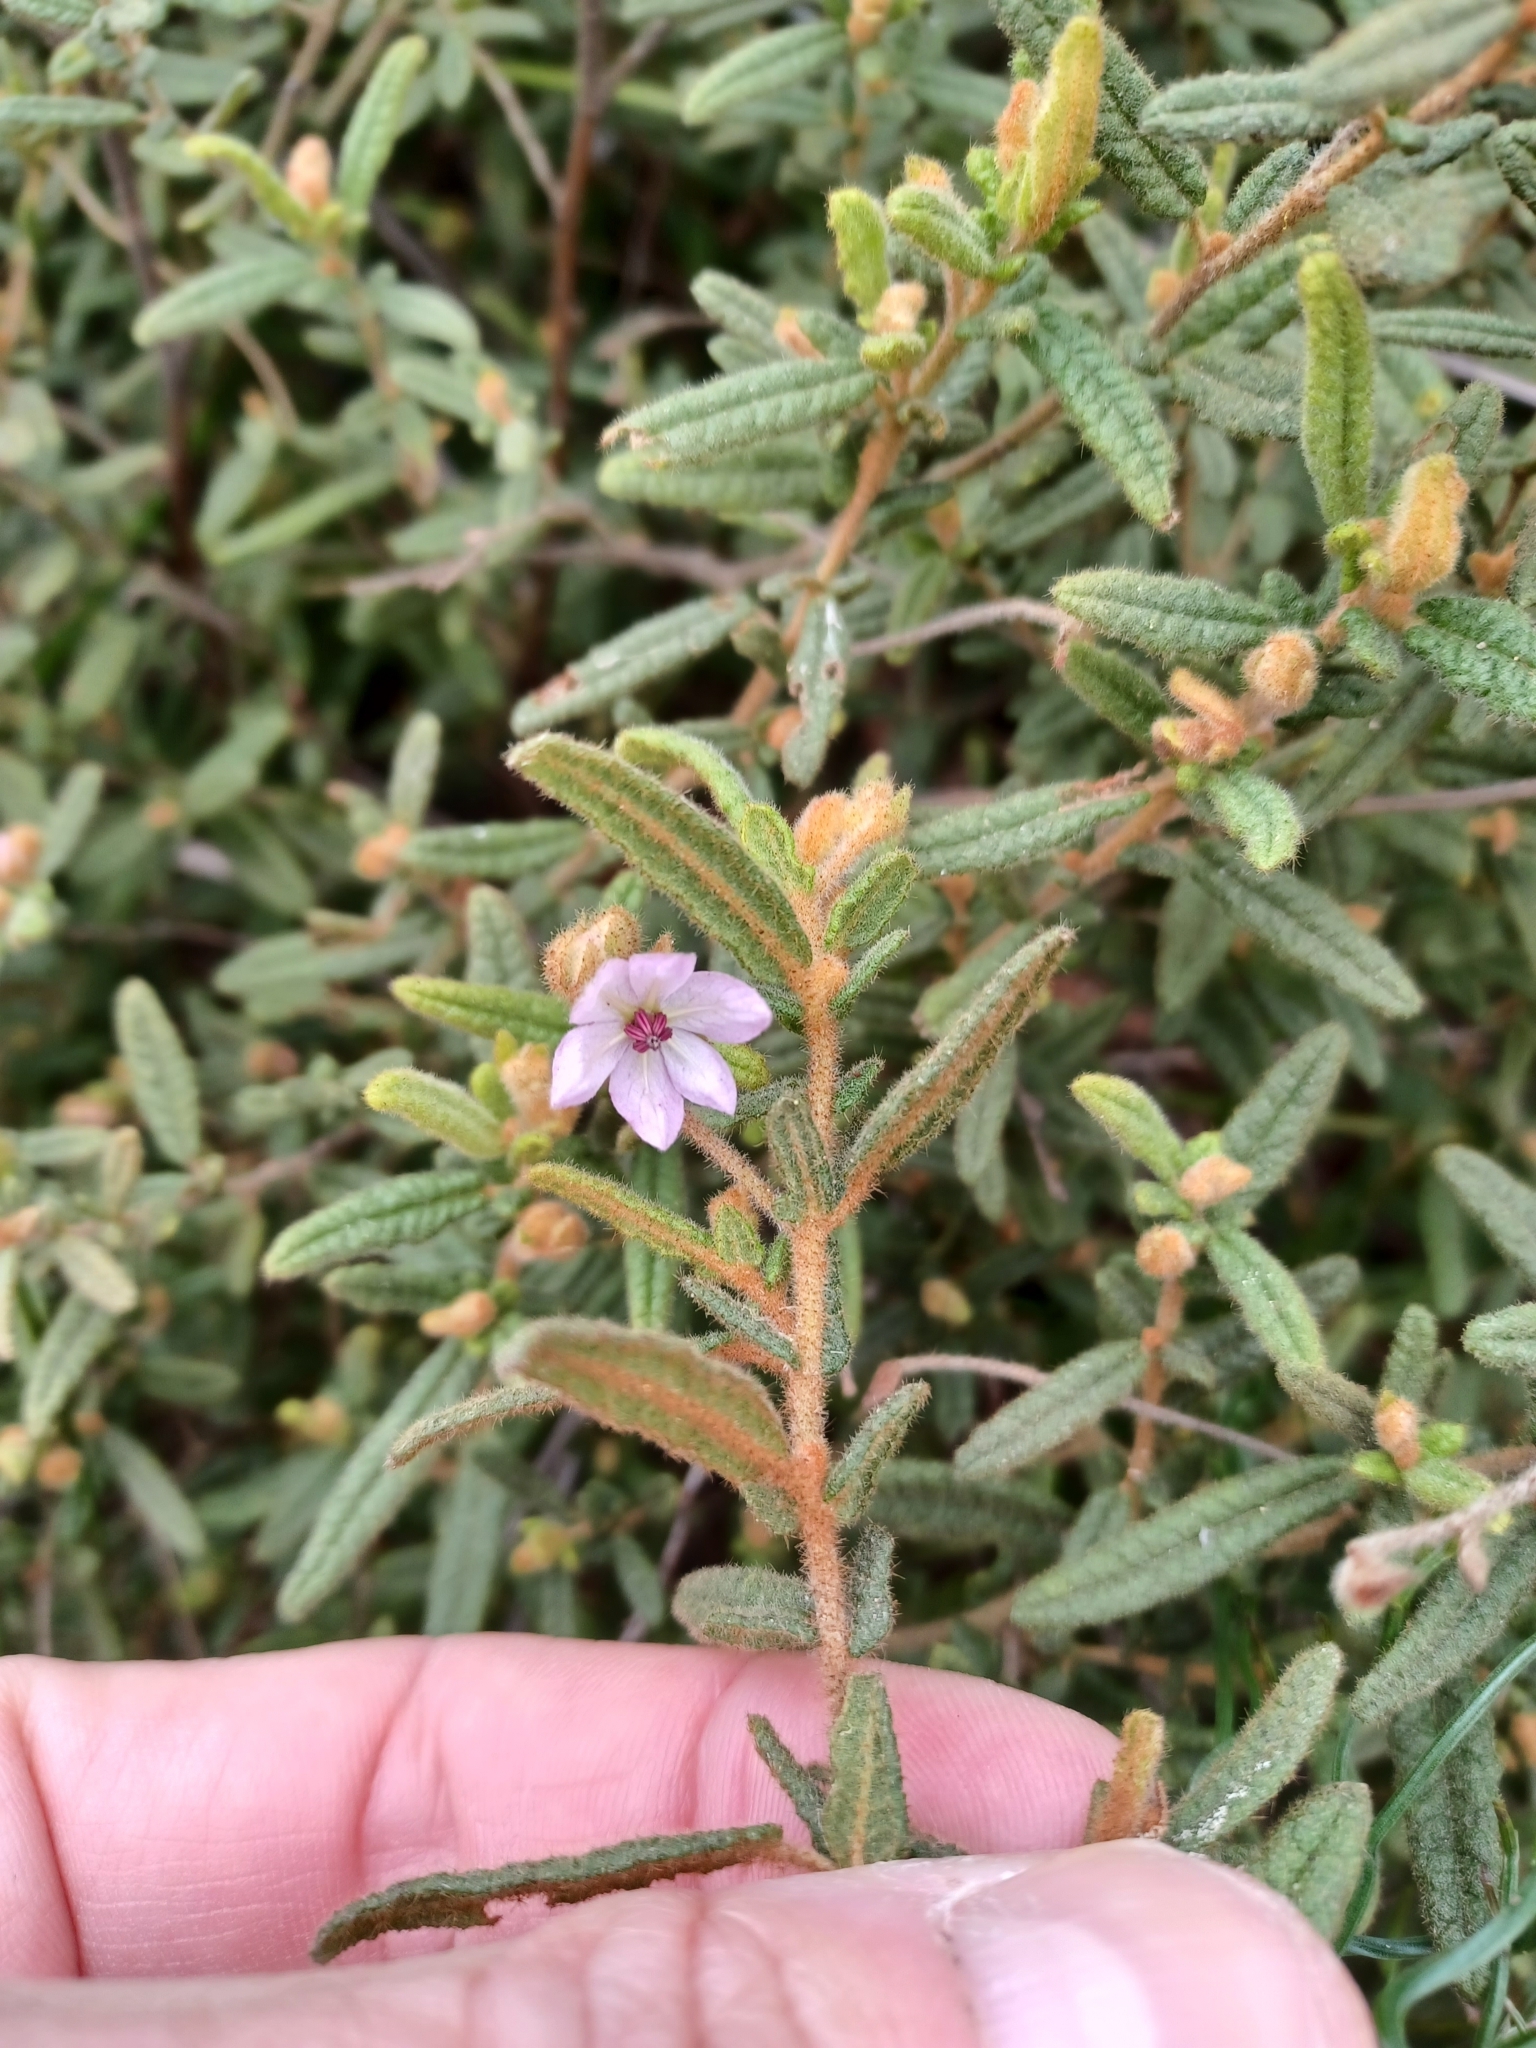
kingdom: Plantae
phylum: Tracheophyta
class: Magnoliopsida
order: Malvales
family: Malvaceae
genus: Thomasia
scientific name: Thomasia petalocalyx
